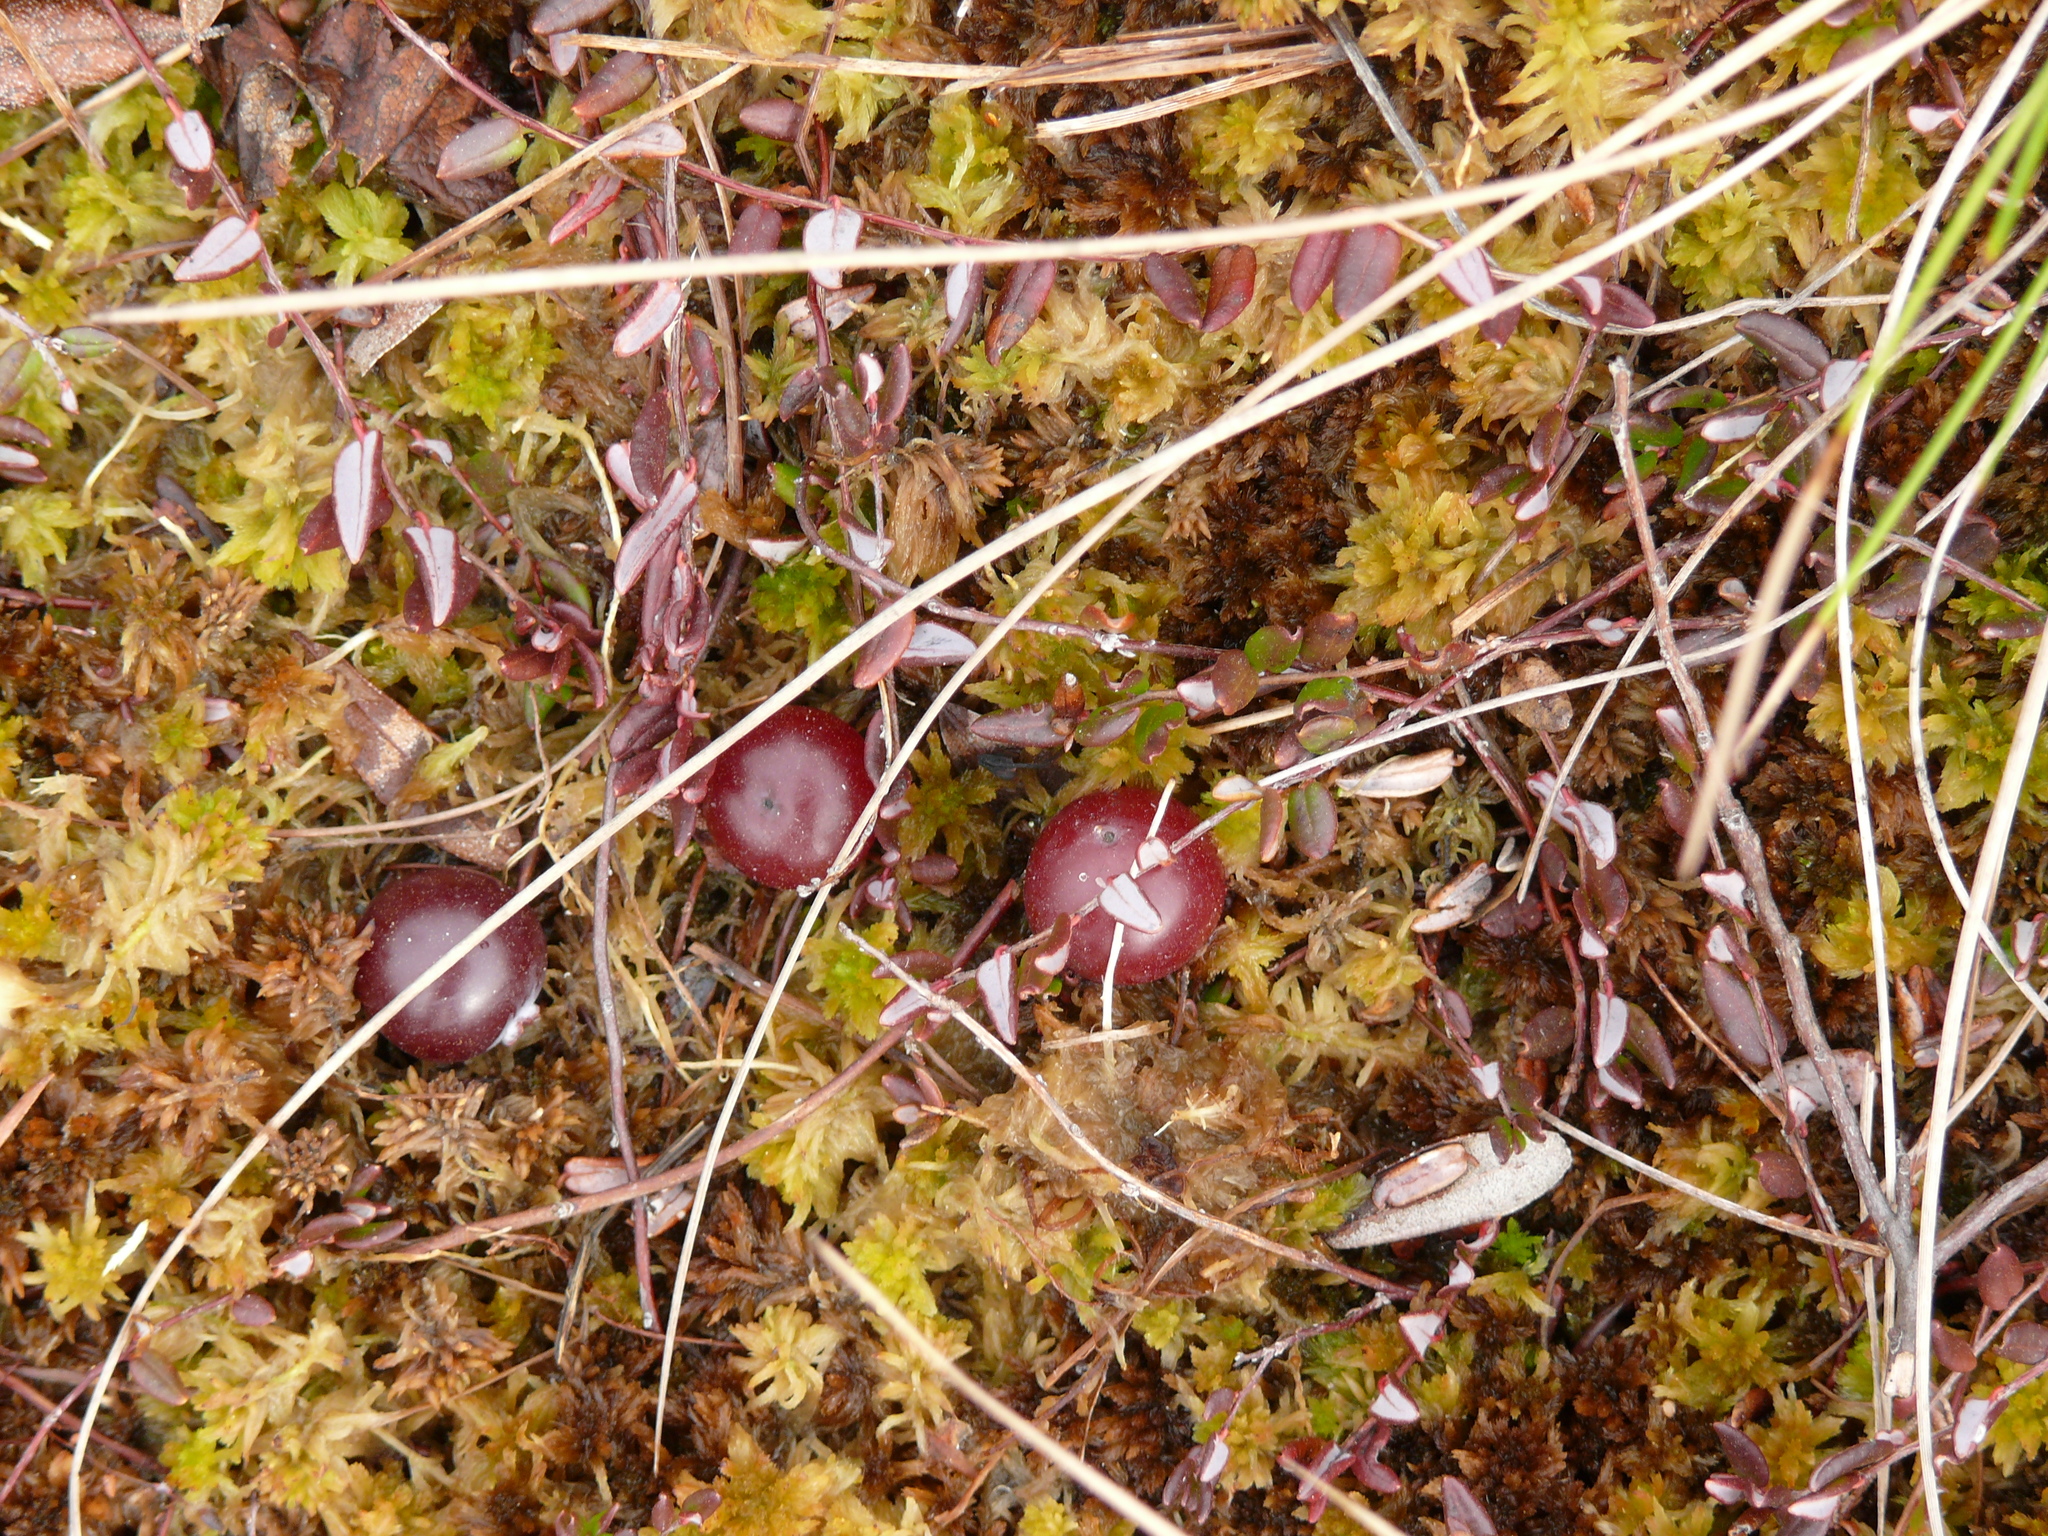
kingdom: Plantae
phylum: Tracheophyta
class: Magnoliopsida
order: Ericales
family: Ericaceae
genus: Vaccinium
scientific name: Vaccinium oxycoccos
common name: Cranberry
